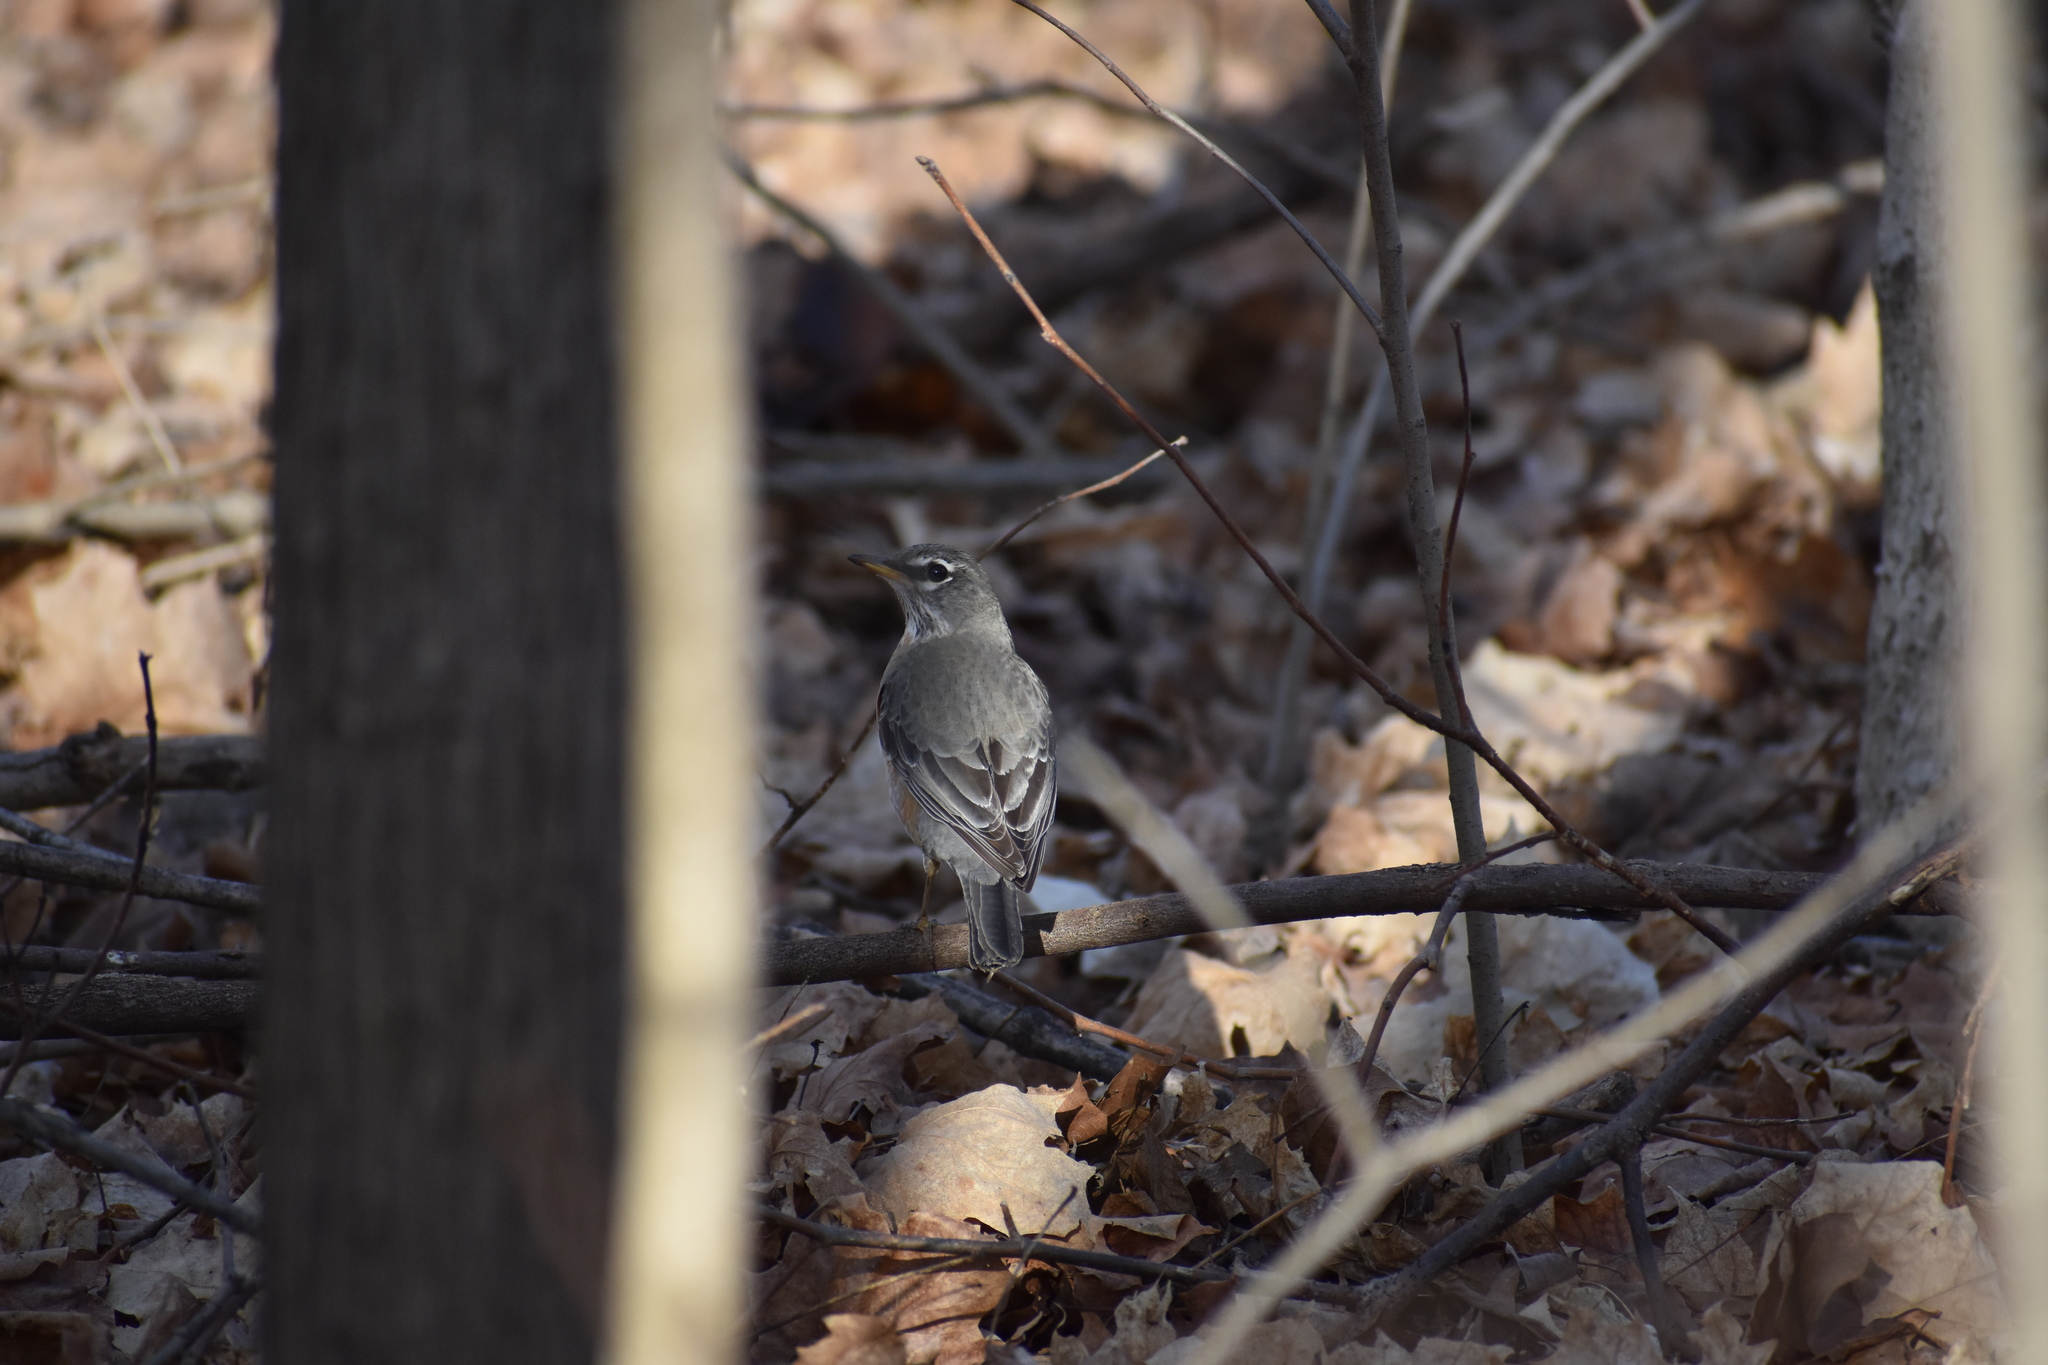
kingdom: Animalia
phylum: Chordata
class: Aves
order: Passeriformes
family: Turdidae
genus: Turdus
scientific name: Turdus migratorius
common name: American robin
